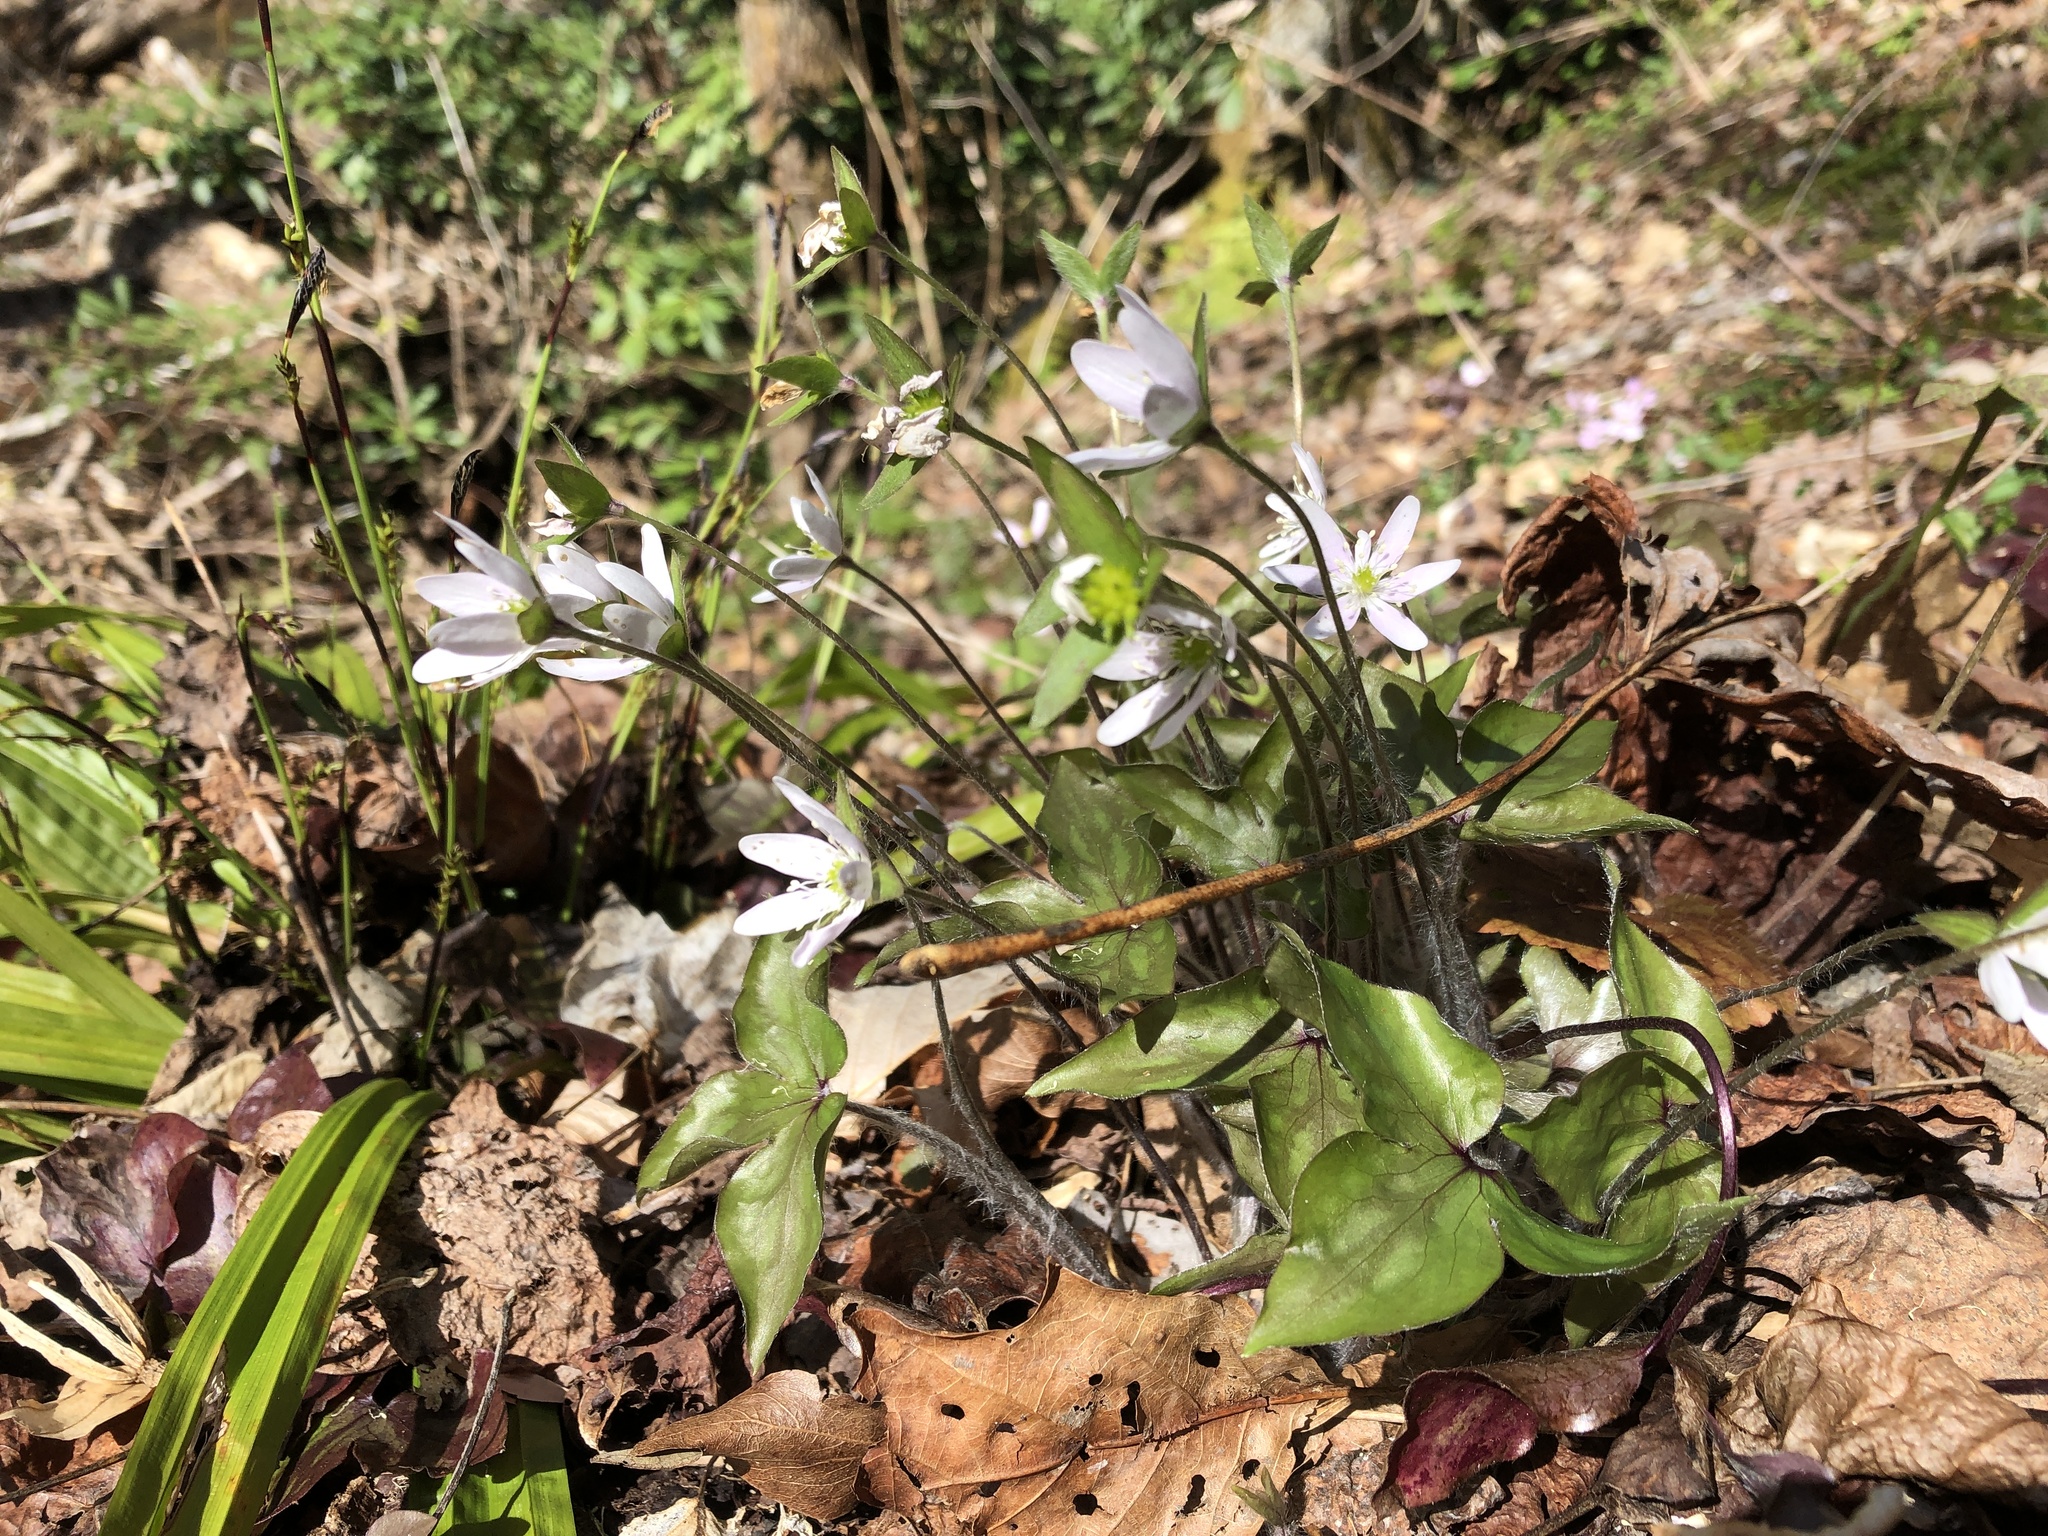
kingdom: Plantae
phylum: Tracheophyta
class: Magnoliopsida
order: Ranunculales
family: Ranunculaceae
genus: Hepatica
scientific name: Hepatica acutiloba
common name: Sharp-lobed hepatica
